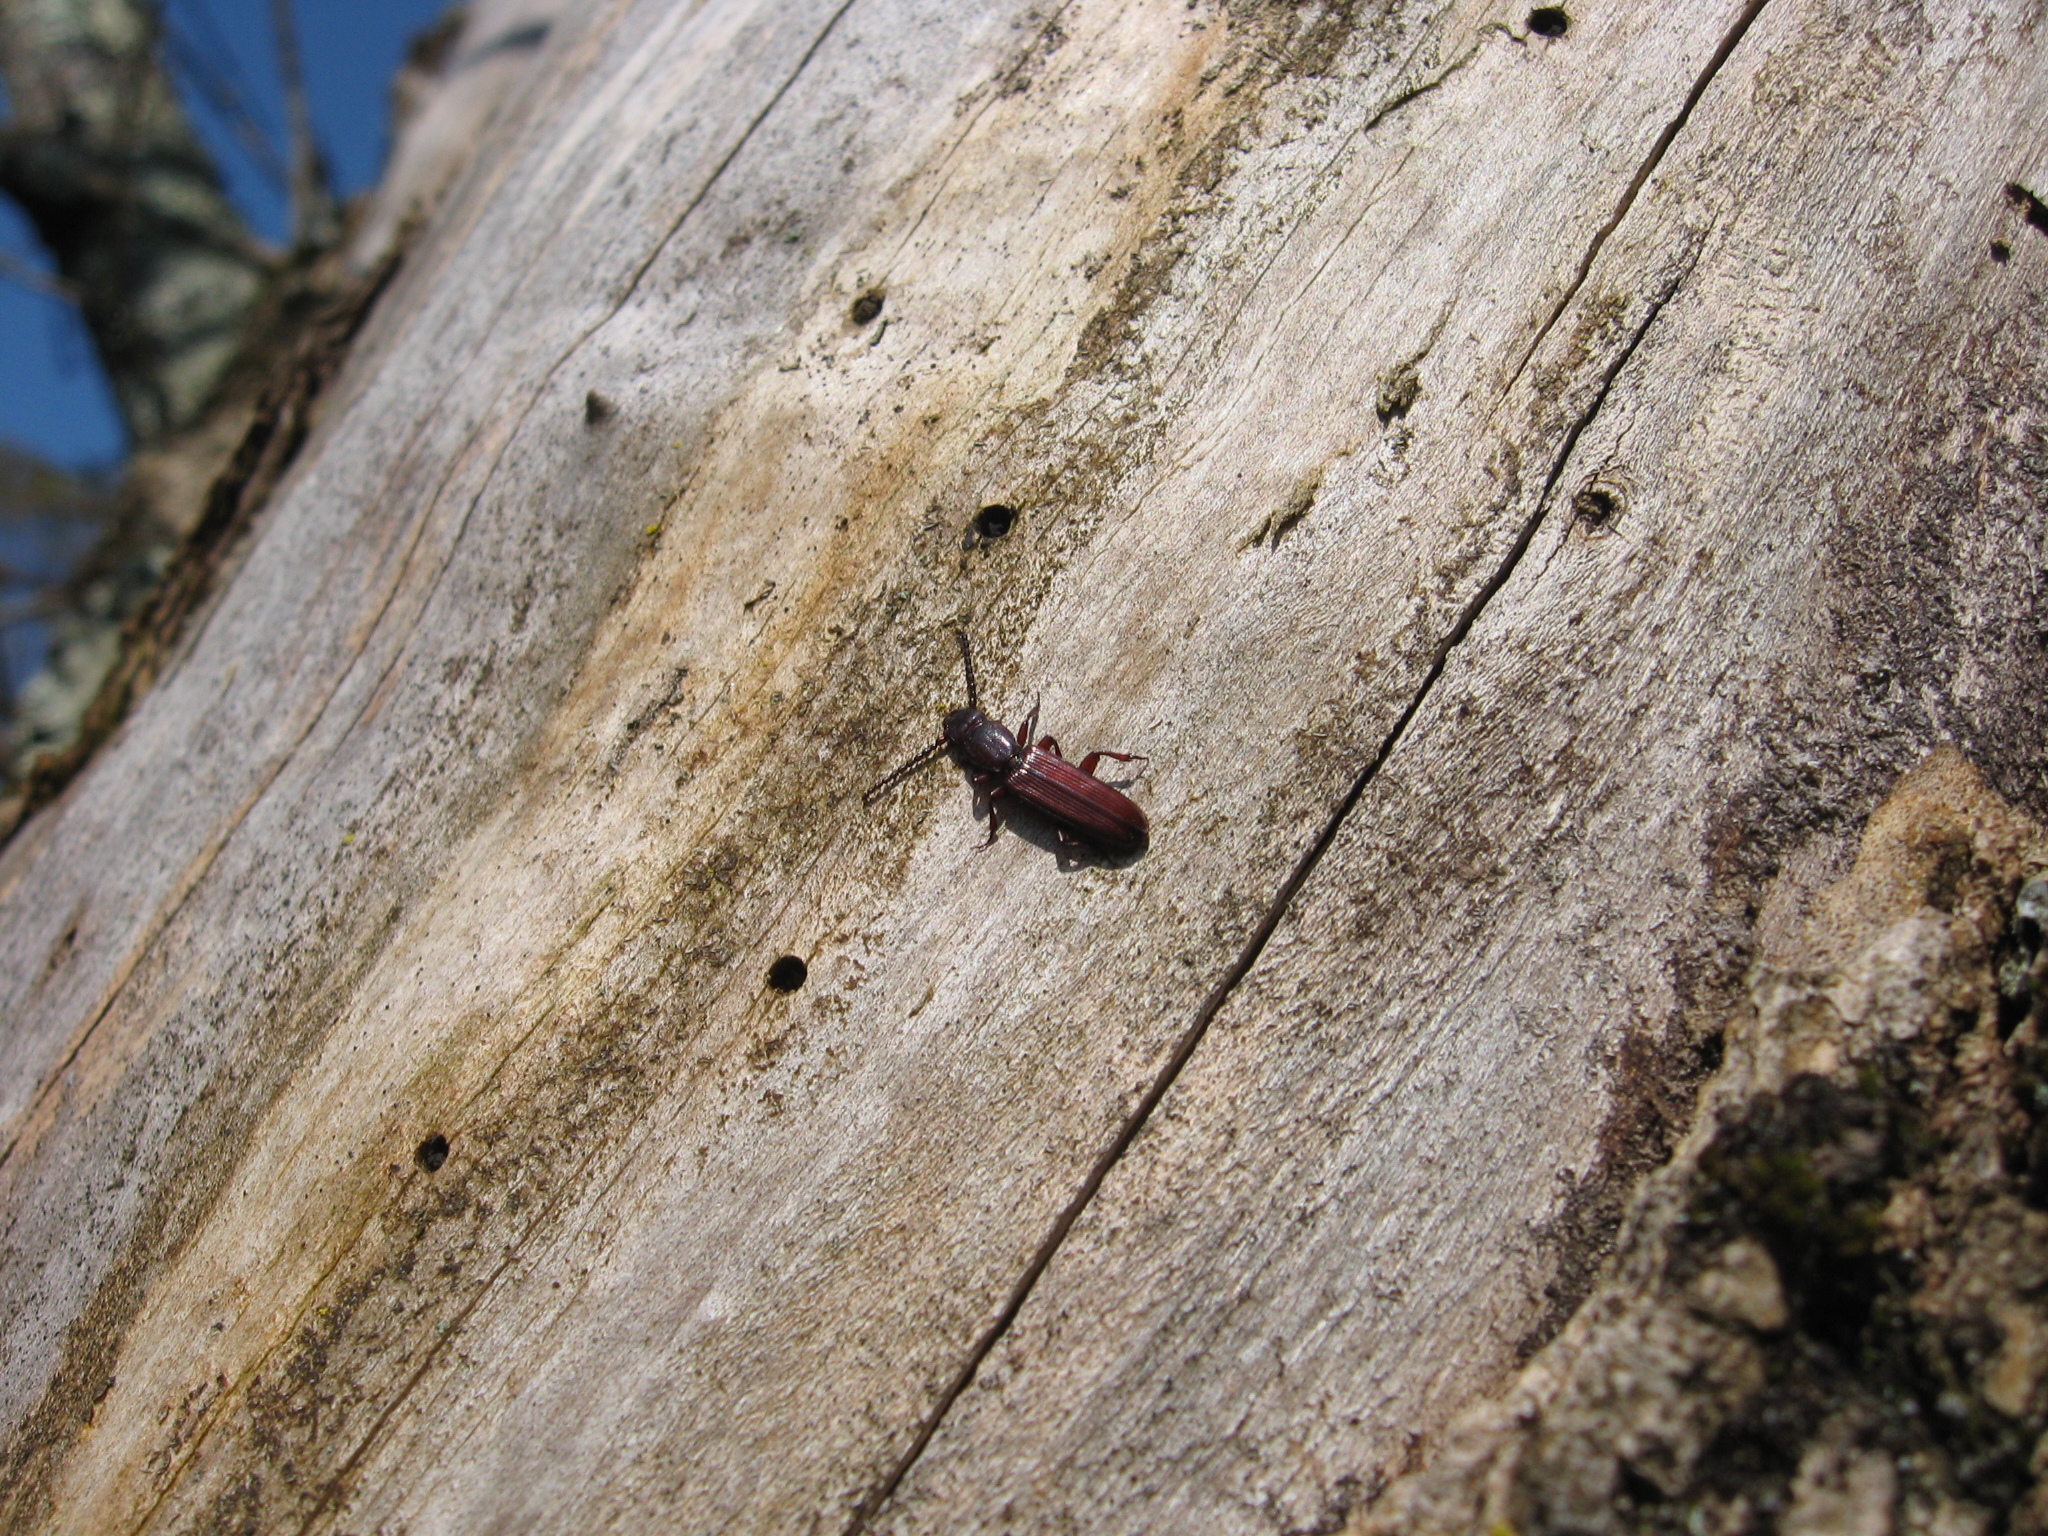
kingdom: Animalia
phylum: Arthropoda
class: Insecta
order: Coleoptera
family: Passandridae
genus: Catogenus
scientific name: Catogenus rufus
